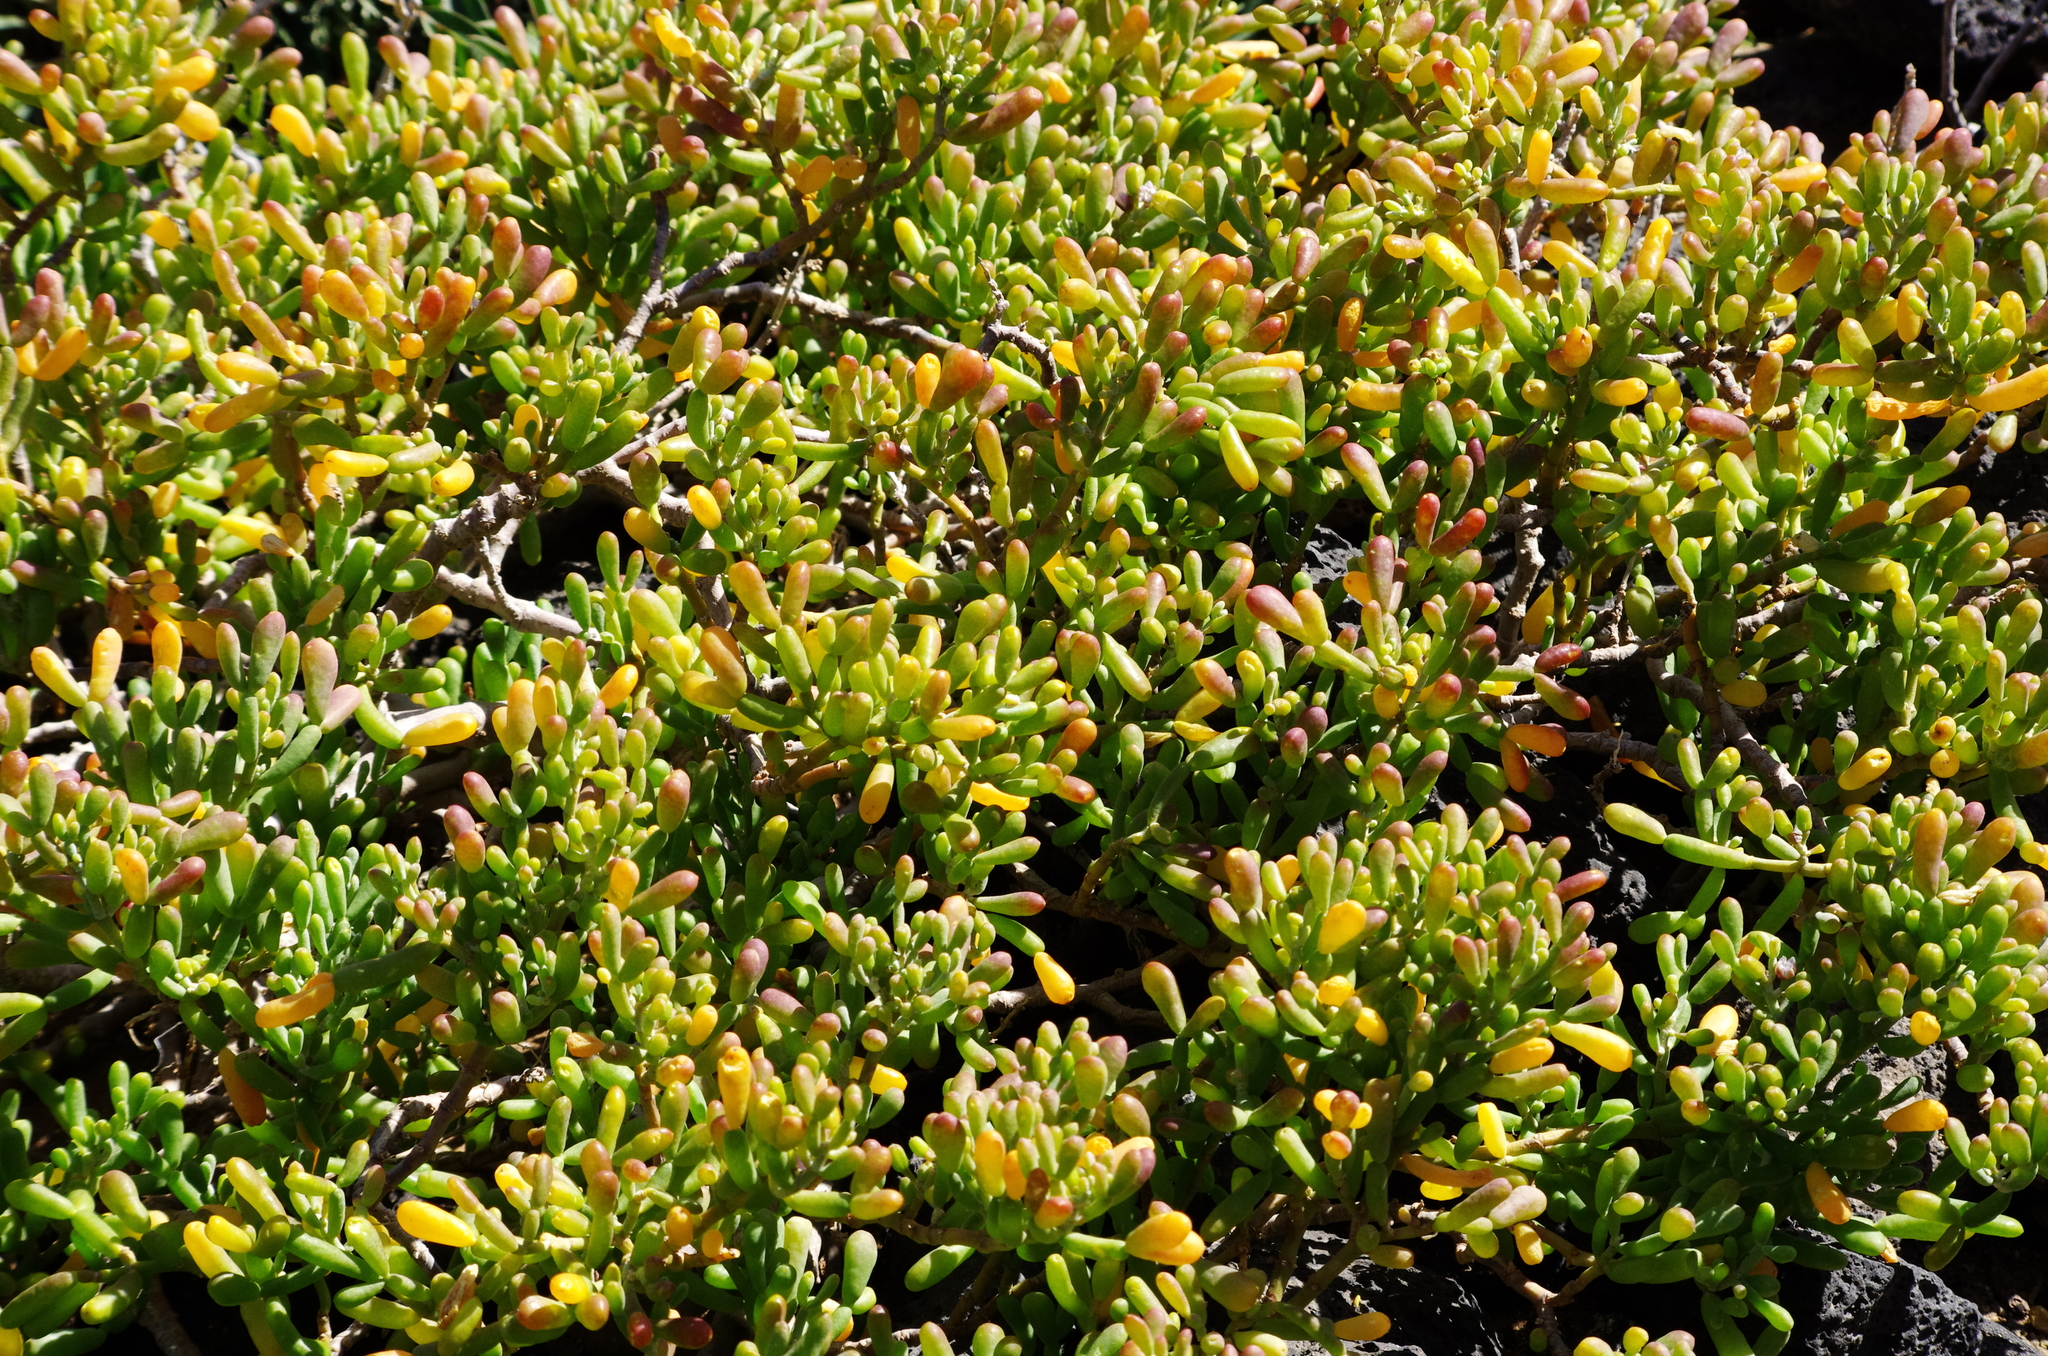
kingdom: Plantae
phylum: Tracheophyta
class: Magnoliopsida
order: Zygophyllales
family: Zygophyllaceae
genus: Tetraena
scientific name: Tetraena fontanesii
